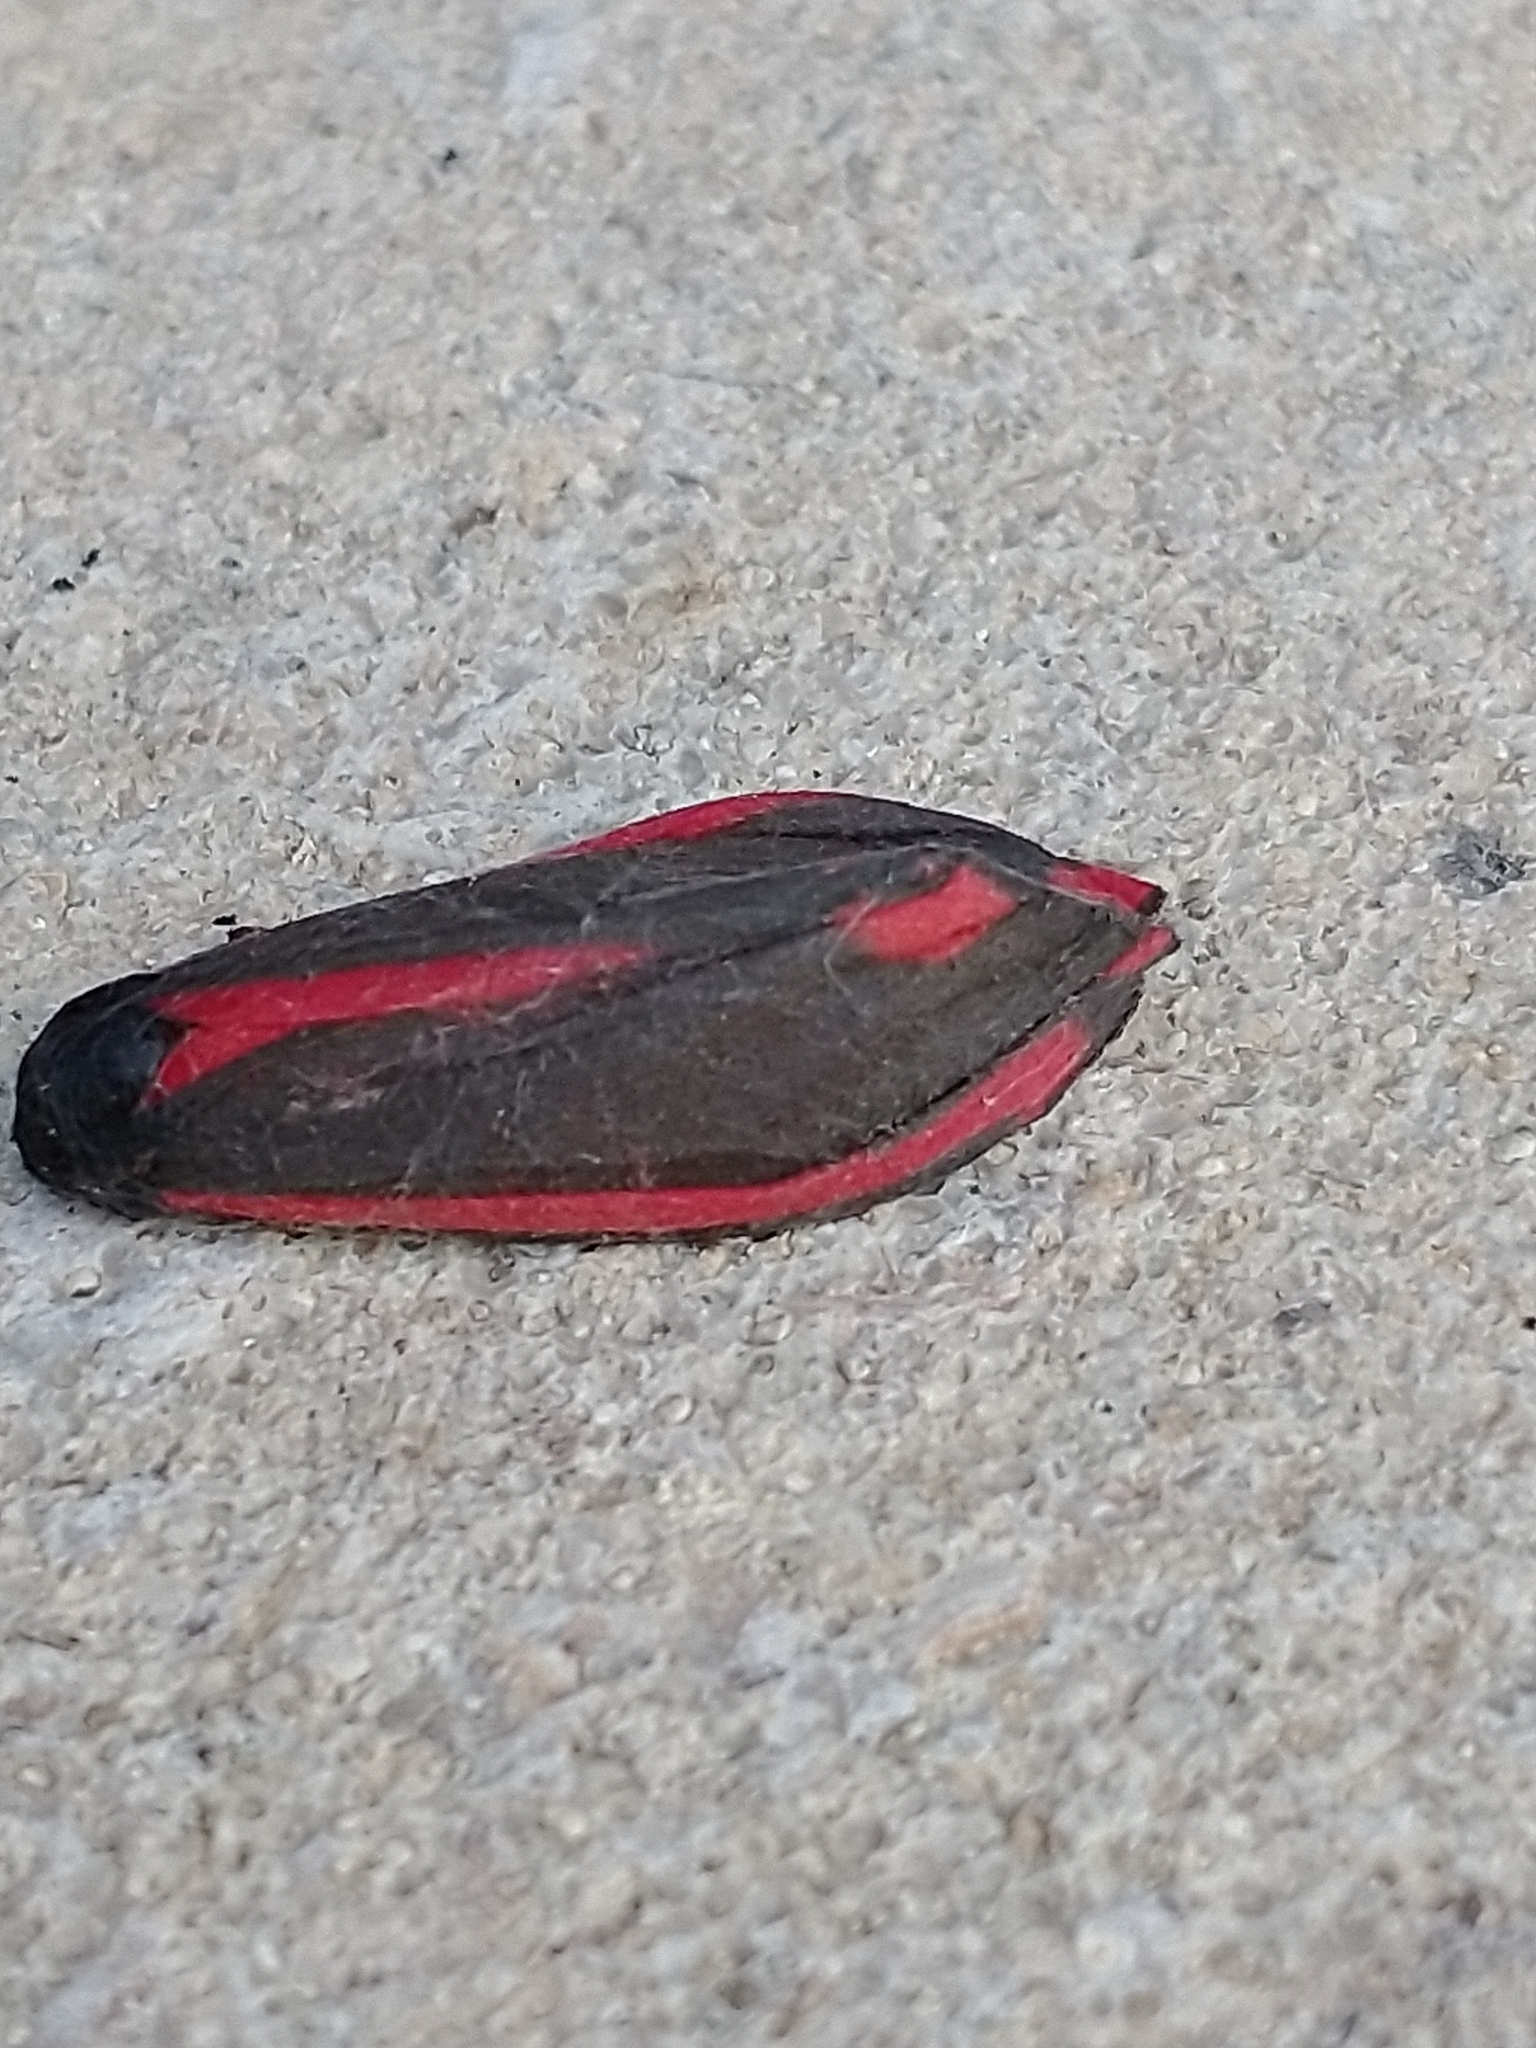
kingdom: Animalia
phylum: Arthropoda
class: Insecta
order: Lepidoptera
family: Erebidae
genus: Tyria
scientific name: Tyria jacobaeae
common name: Cinnabar
